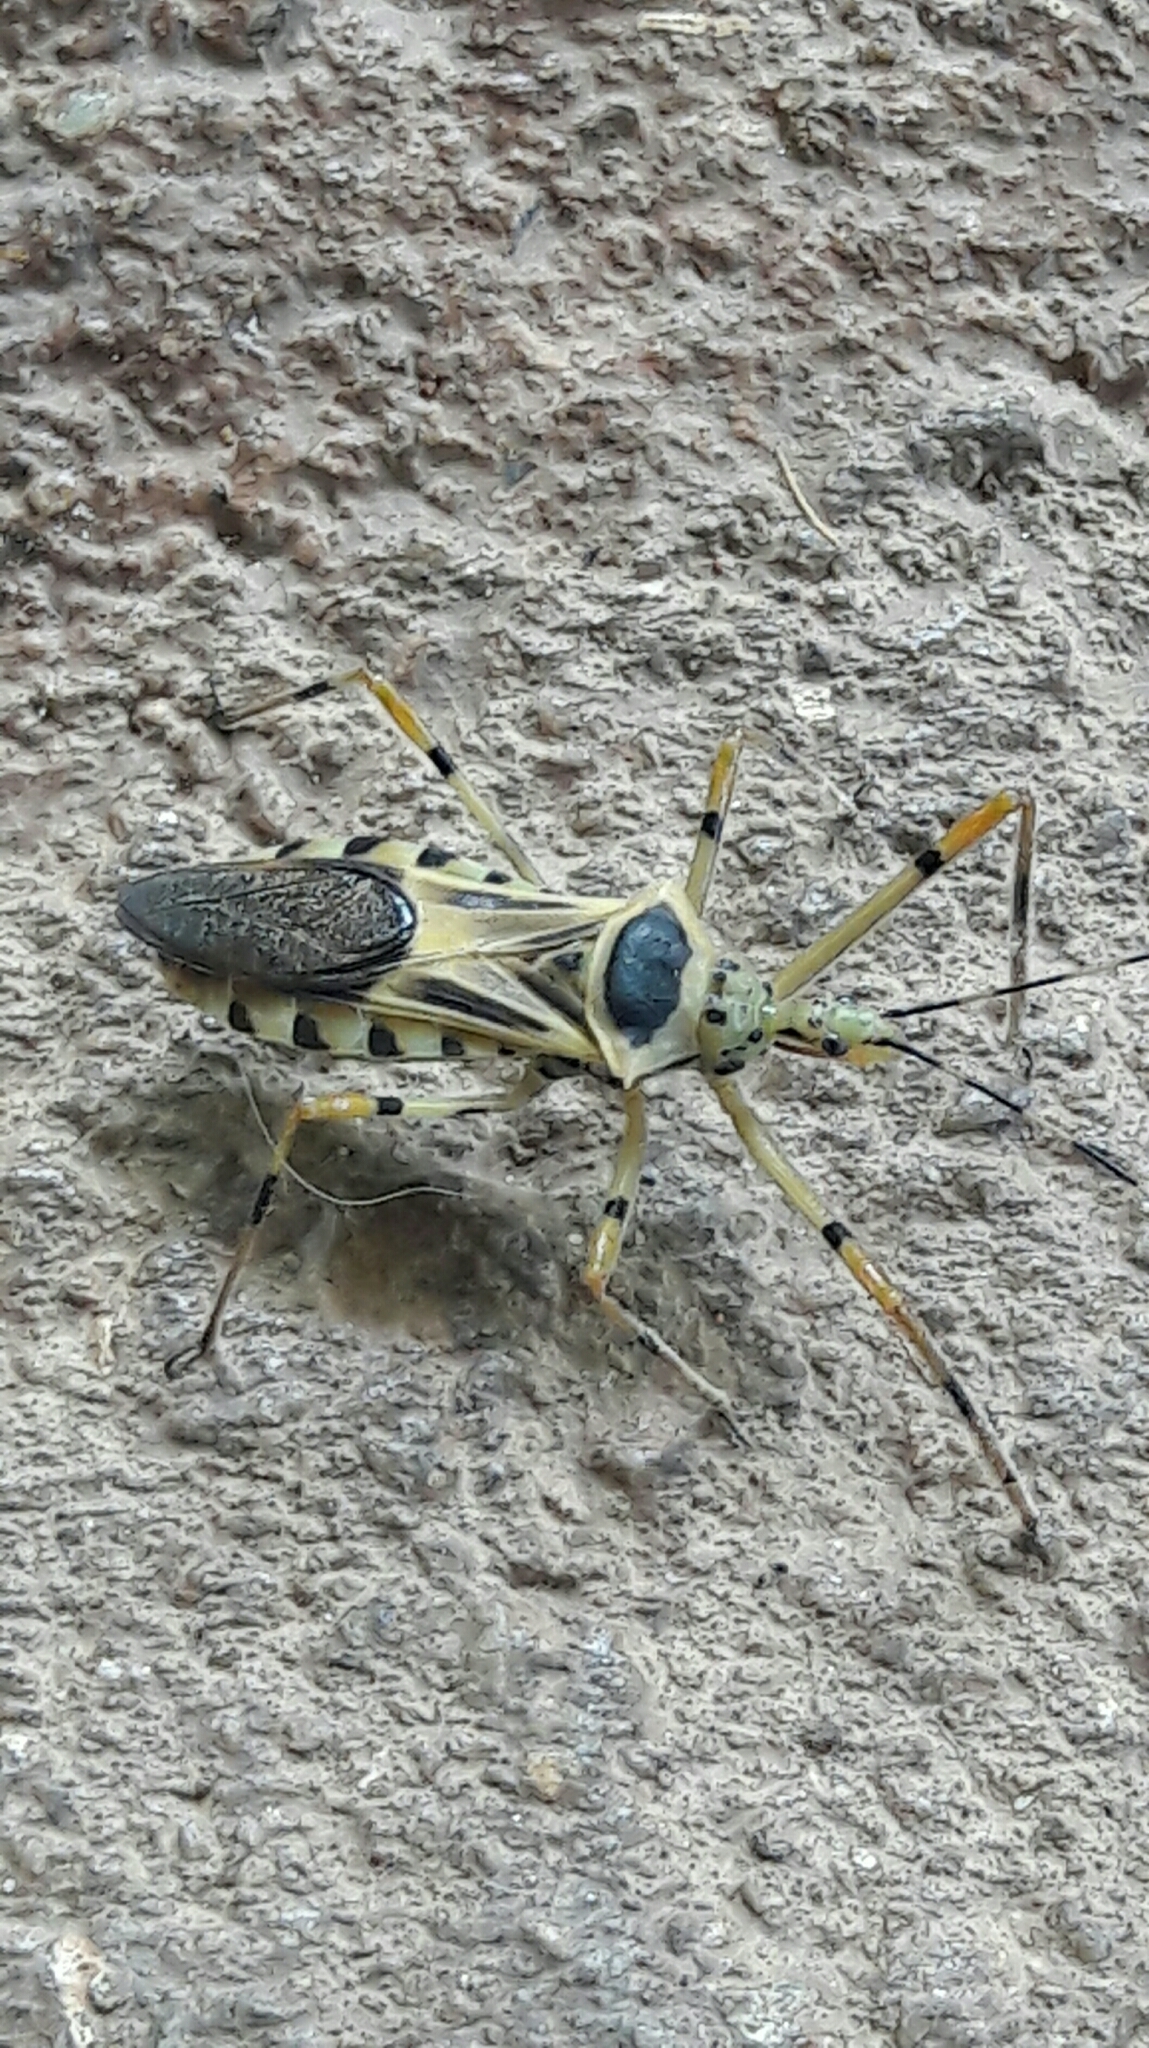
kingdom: Animalia
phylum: Arthropoda
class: Insecta
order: Hemiptera
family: Reduviidae
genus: Zelus
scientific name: Zelus armillatus
